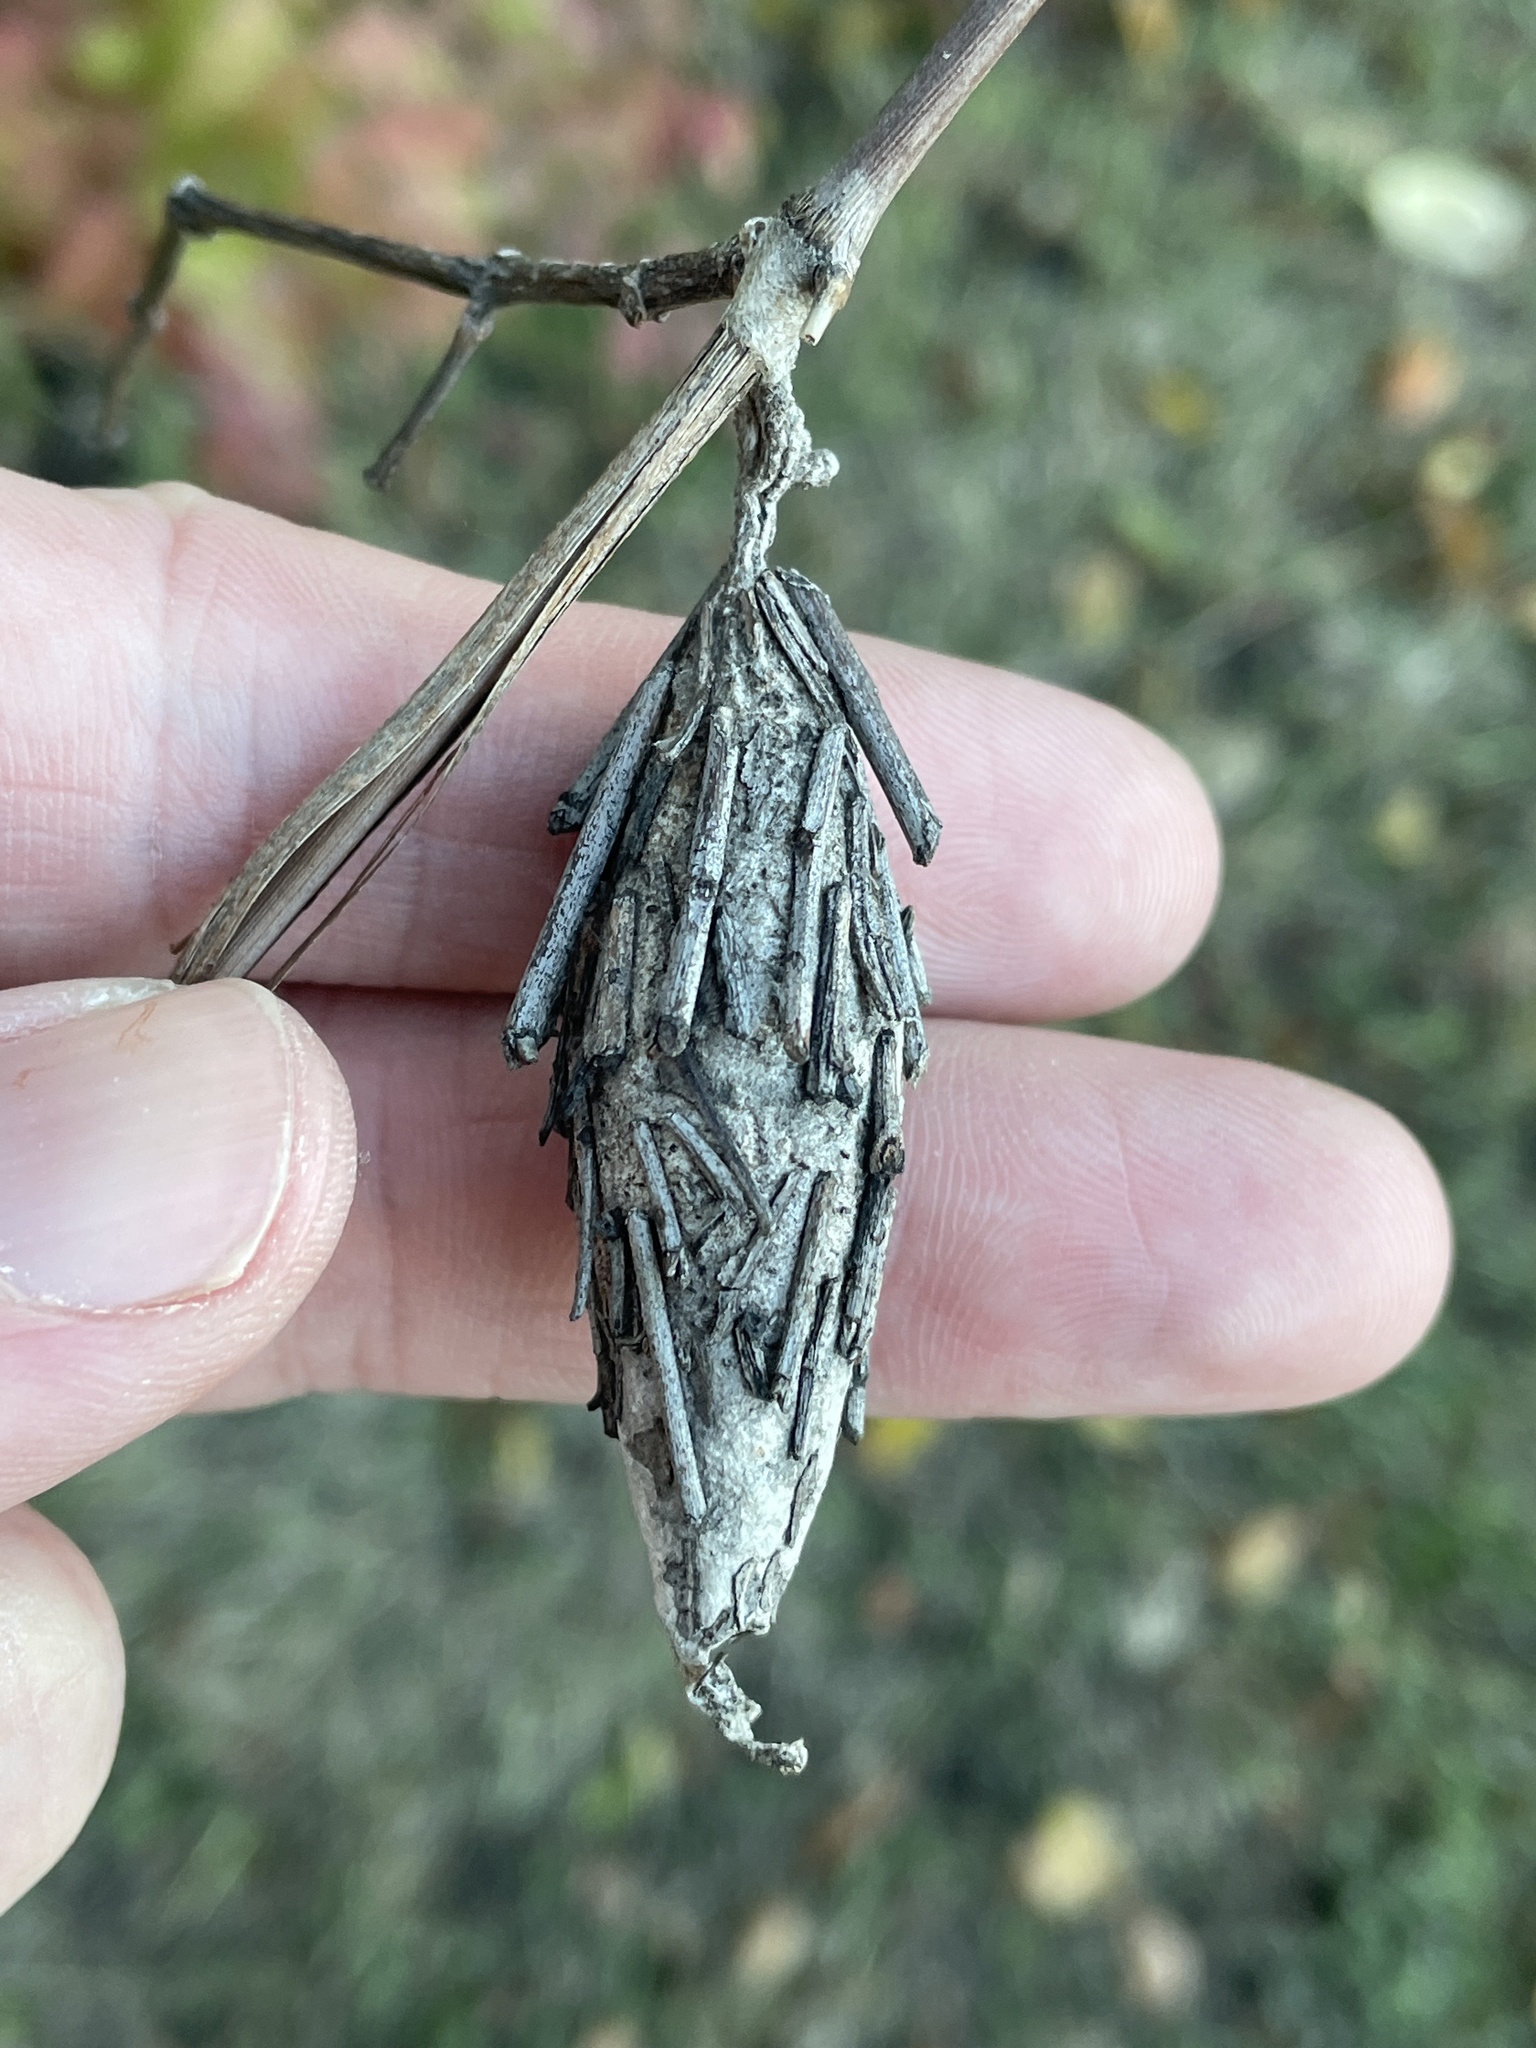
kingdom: Animalia
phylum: Arthropoda
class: Insecta
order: Lepidoptera
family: Psychidae
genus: Thyridopteryx
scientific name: Thyridopteryx ephemeraeformis
